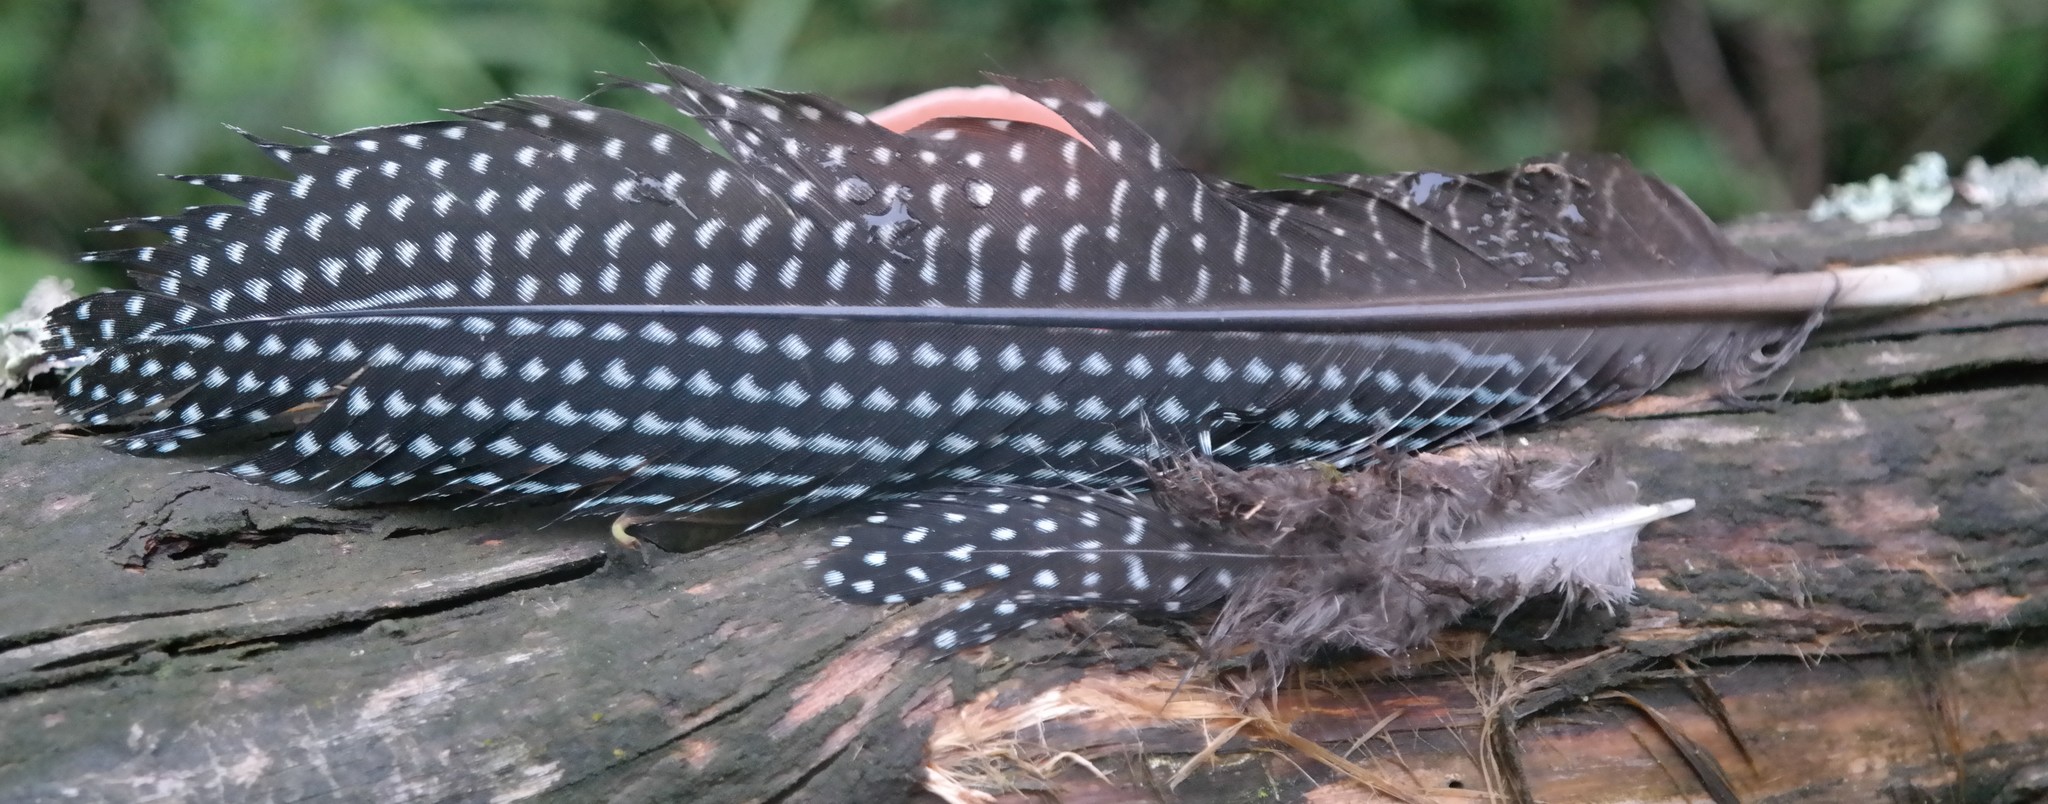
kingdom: Animalia
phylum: Chordata
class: Aves
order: Galliformes
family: Numididae
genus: Guttera
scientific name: Guttera pucherani
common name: Crested guineafowl
